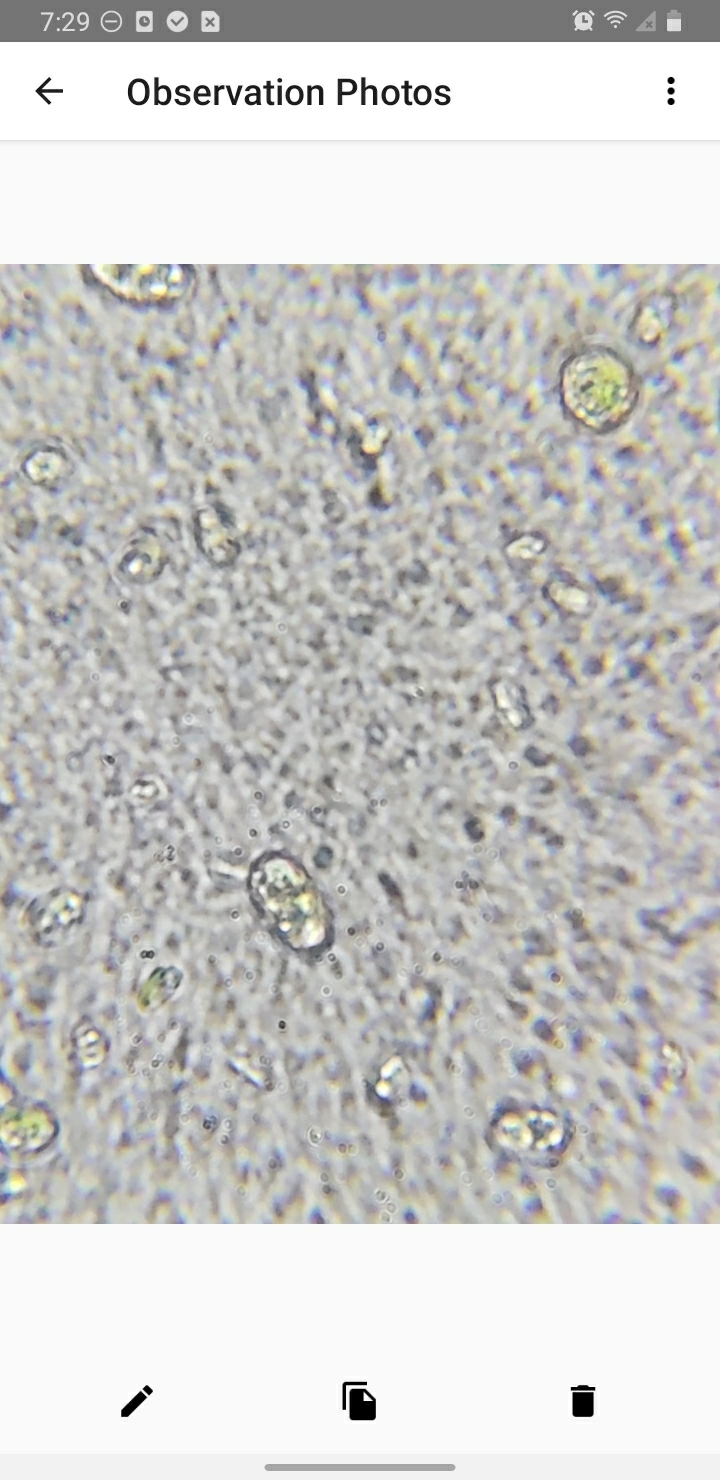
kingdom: Fungi
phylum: Basidiomycota
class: Agaricomycetes
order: Cantharellales
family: Hydnaceae
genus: Multiclavula
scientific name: Multiclavula mucida
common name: White green-algae coral
